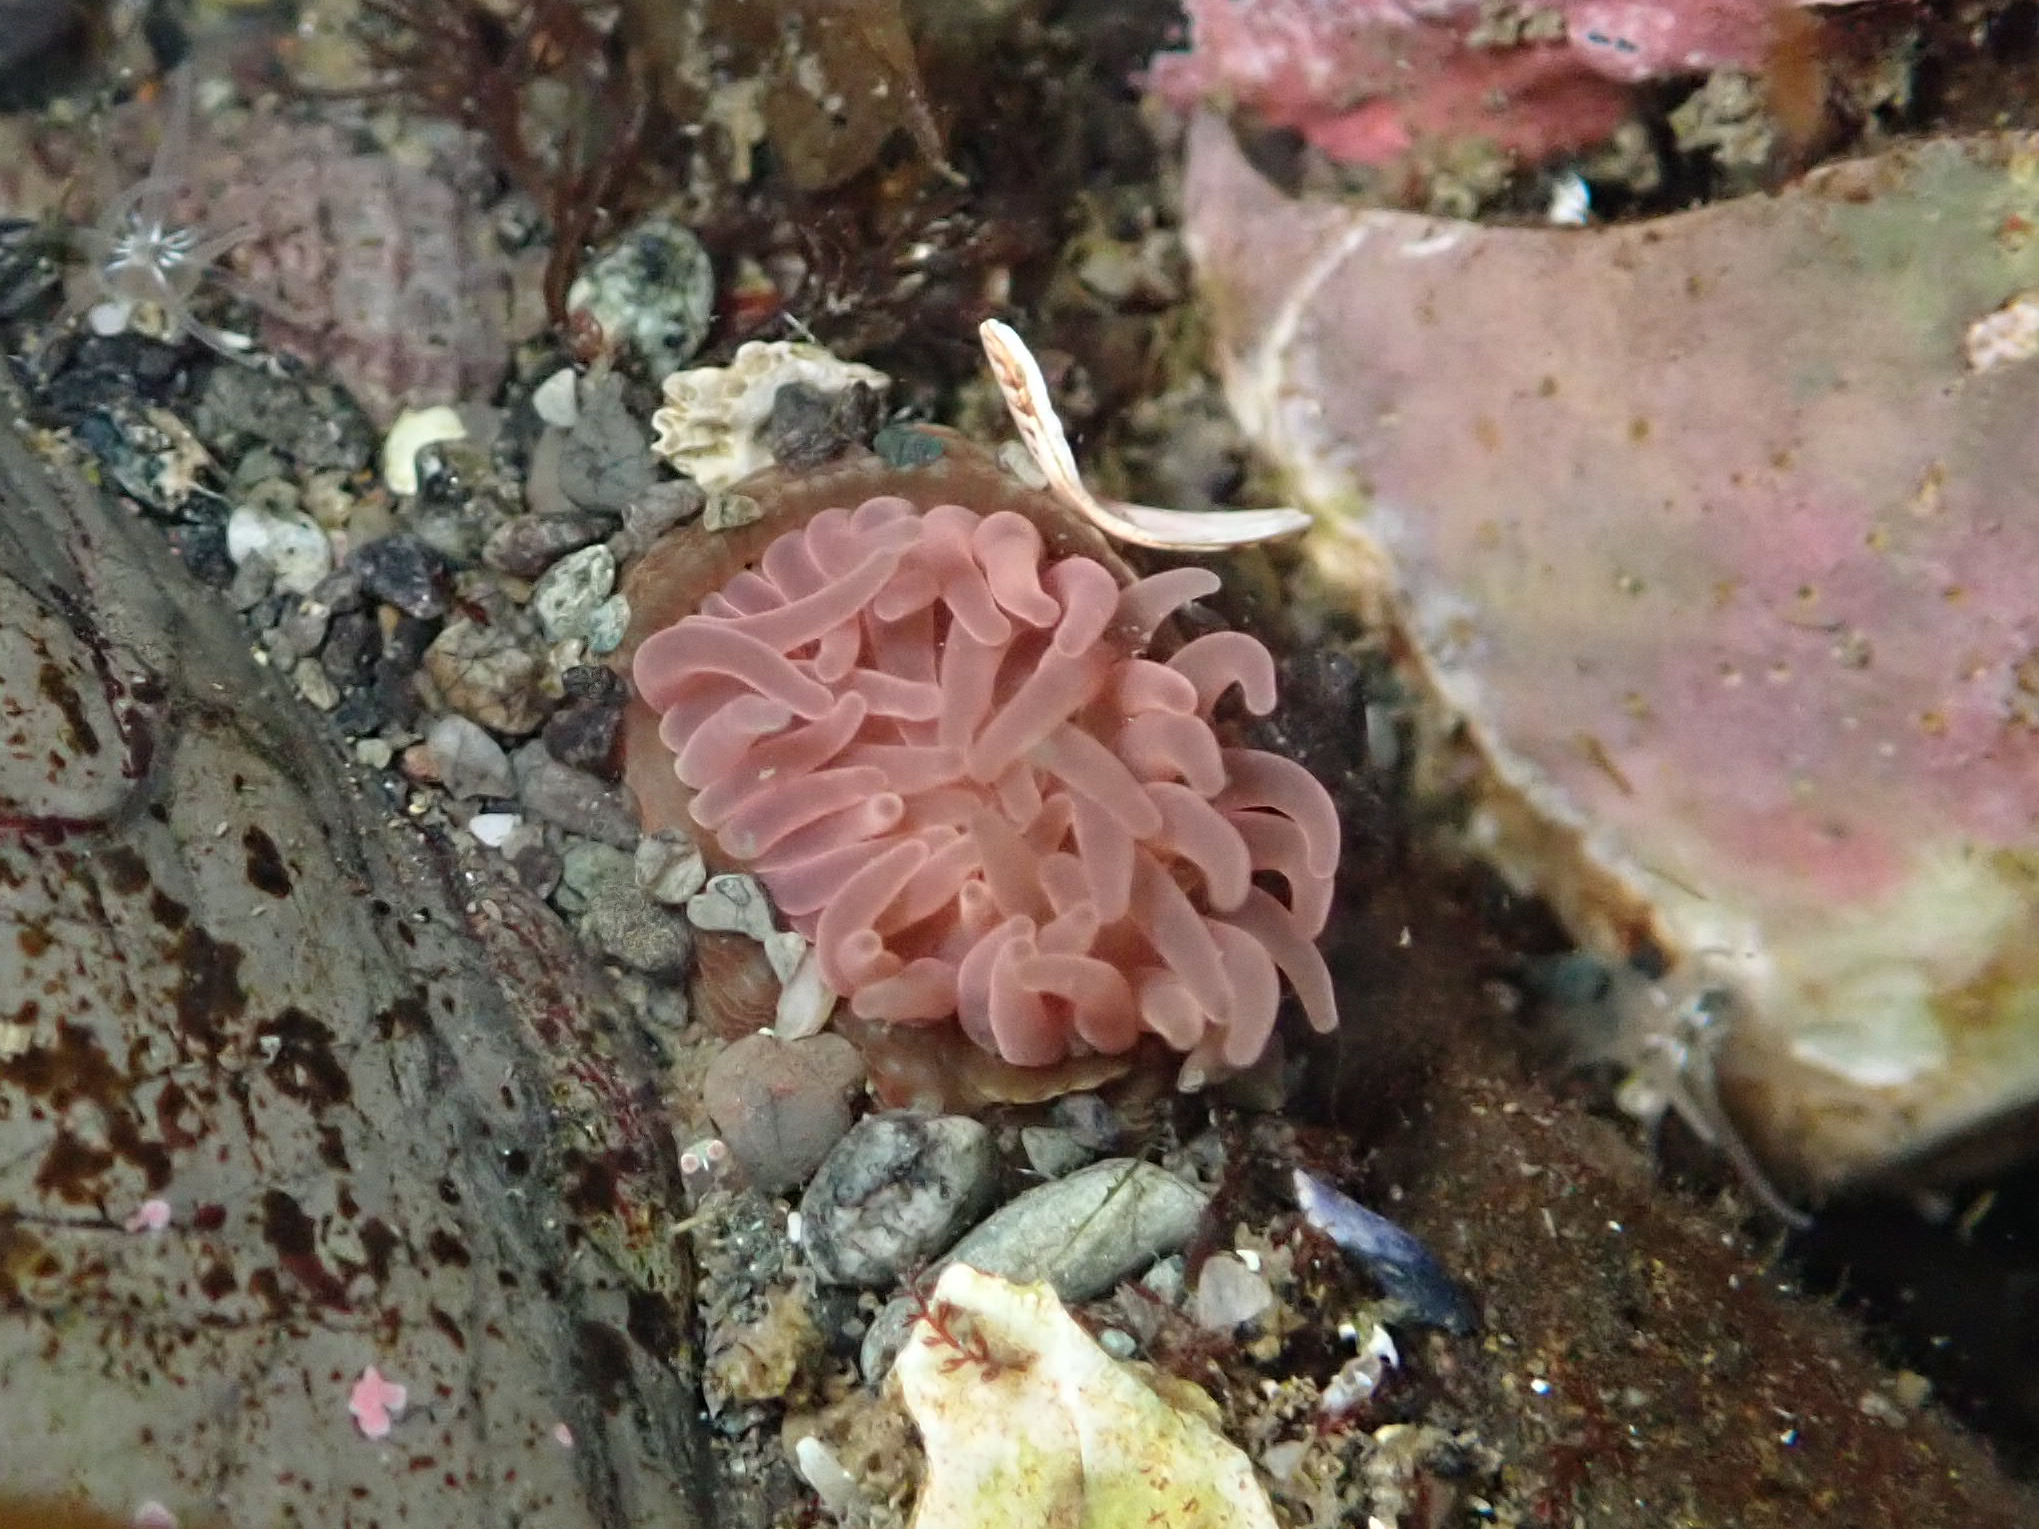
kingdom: Animalia
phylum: Cnidaria
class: Anthozoa
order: Actiniaria
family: Actiniidae
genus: Aulactinia
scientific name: Aulactinia incubans
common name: Incubating anemone
